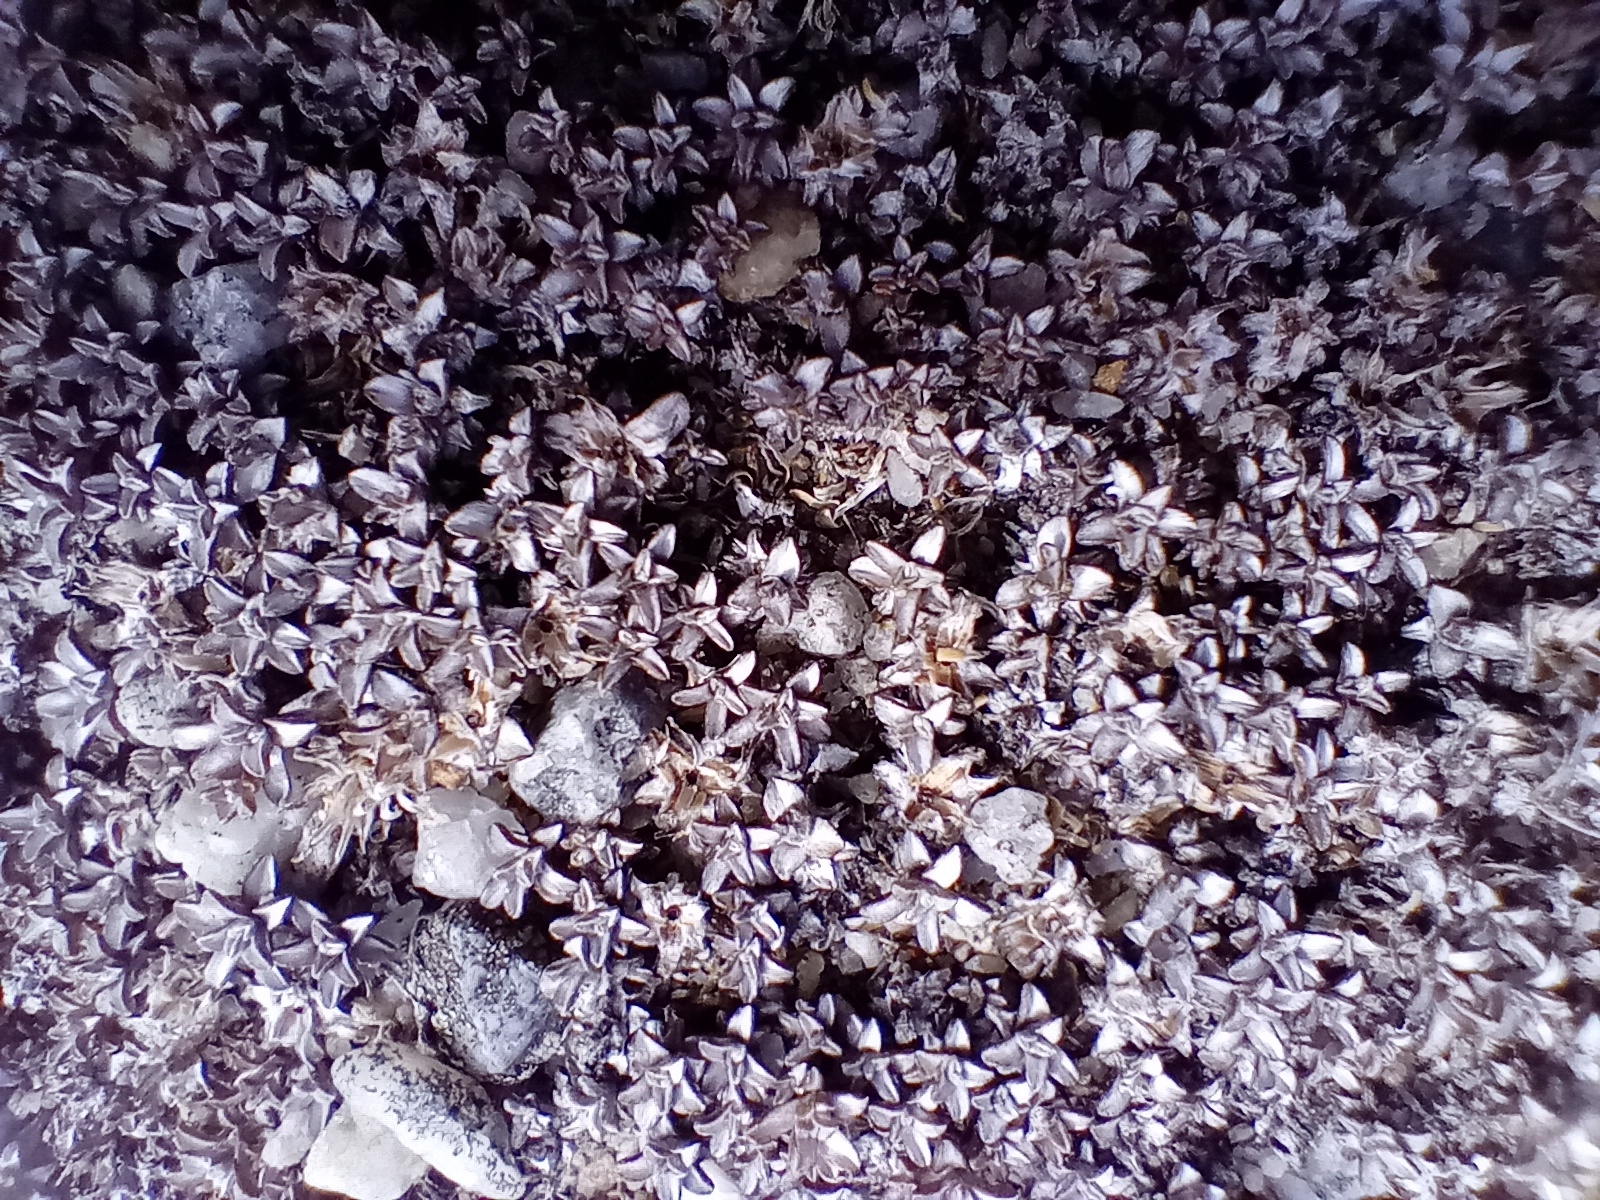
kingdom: Plantae
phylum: Tracheophyta
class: Magnoliopsida
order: Asterales
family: Asteraceae
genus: Raoulia
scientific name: Raoulia beauverdii
